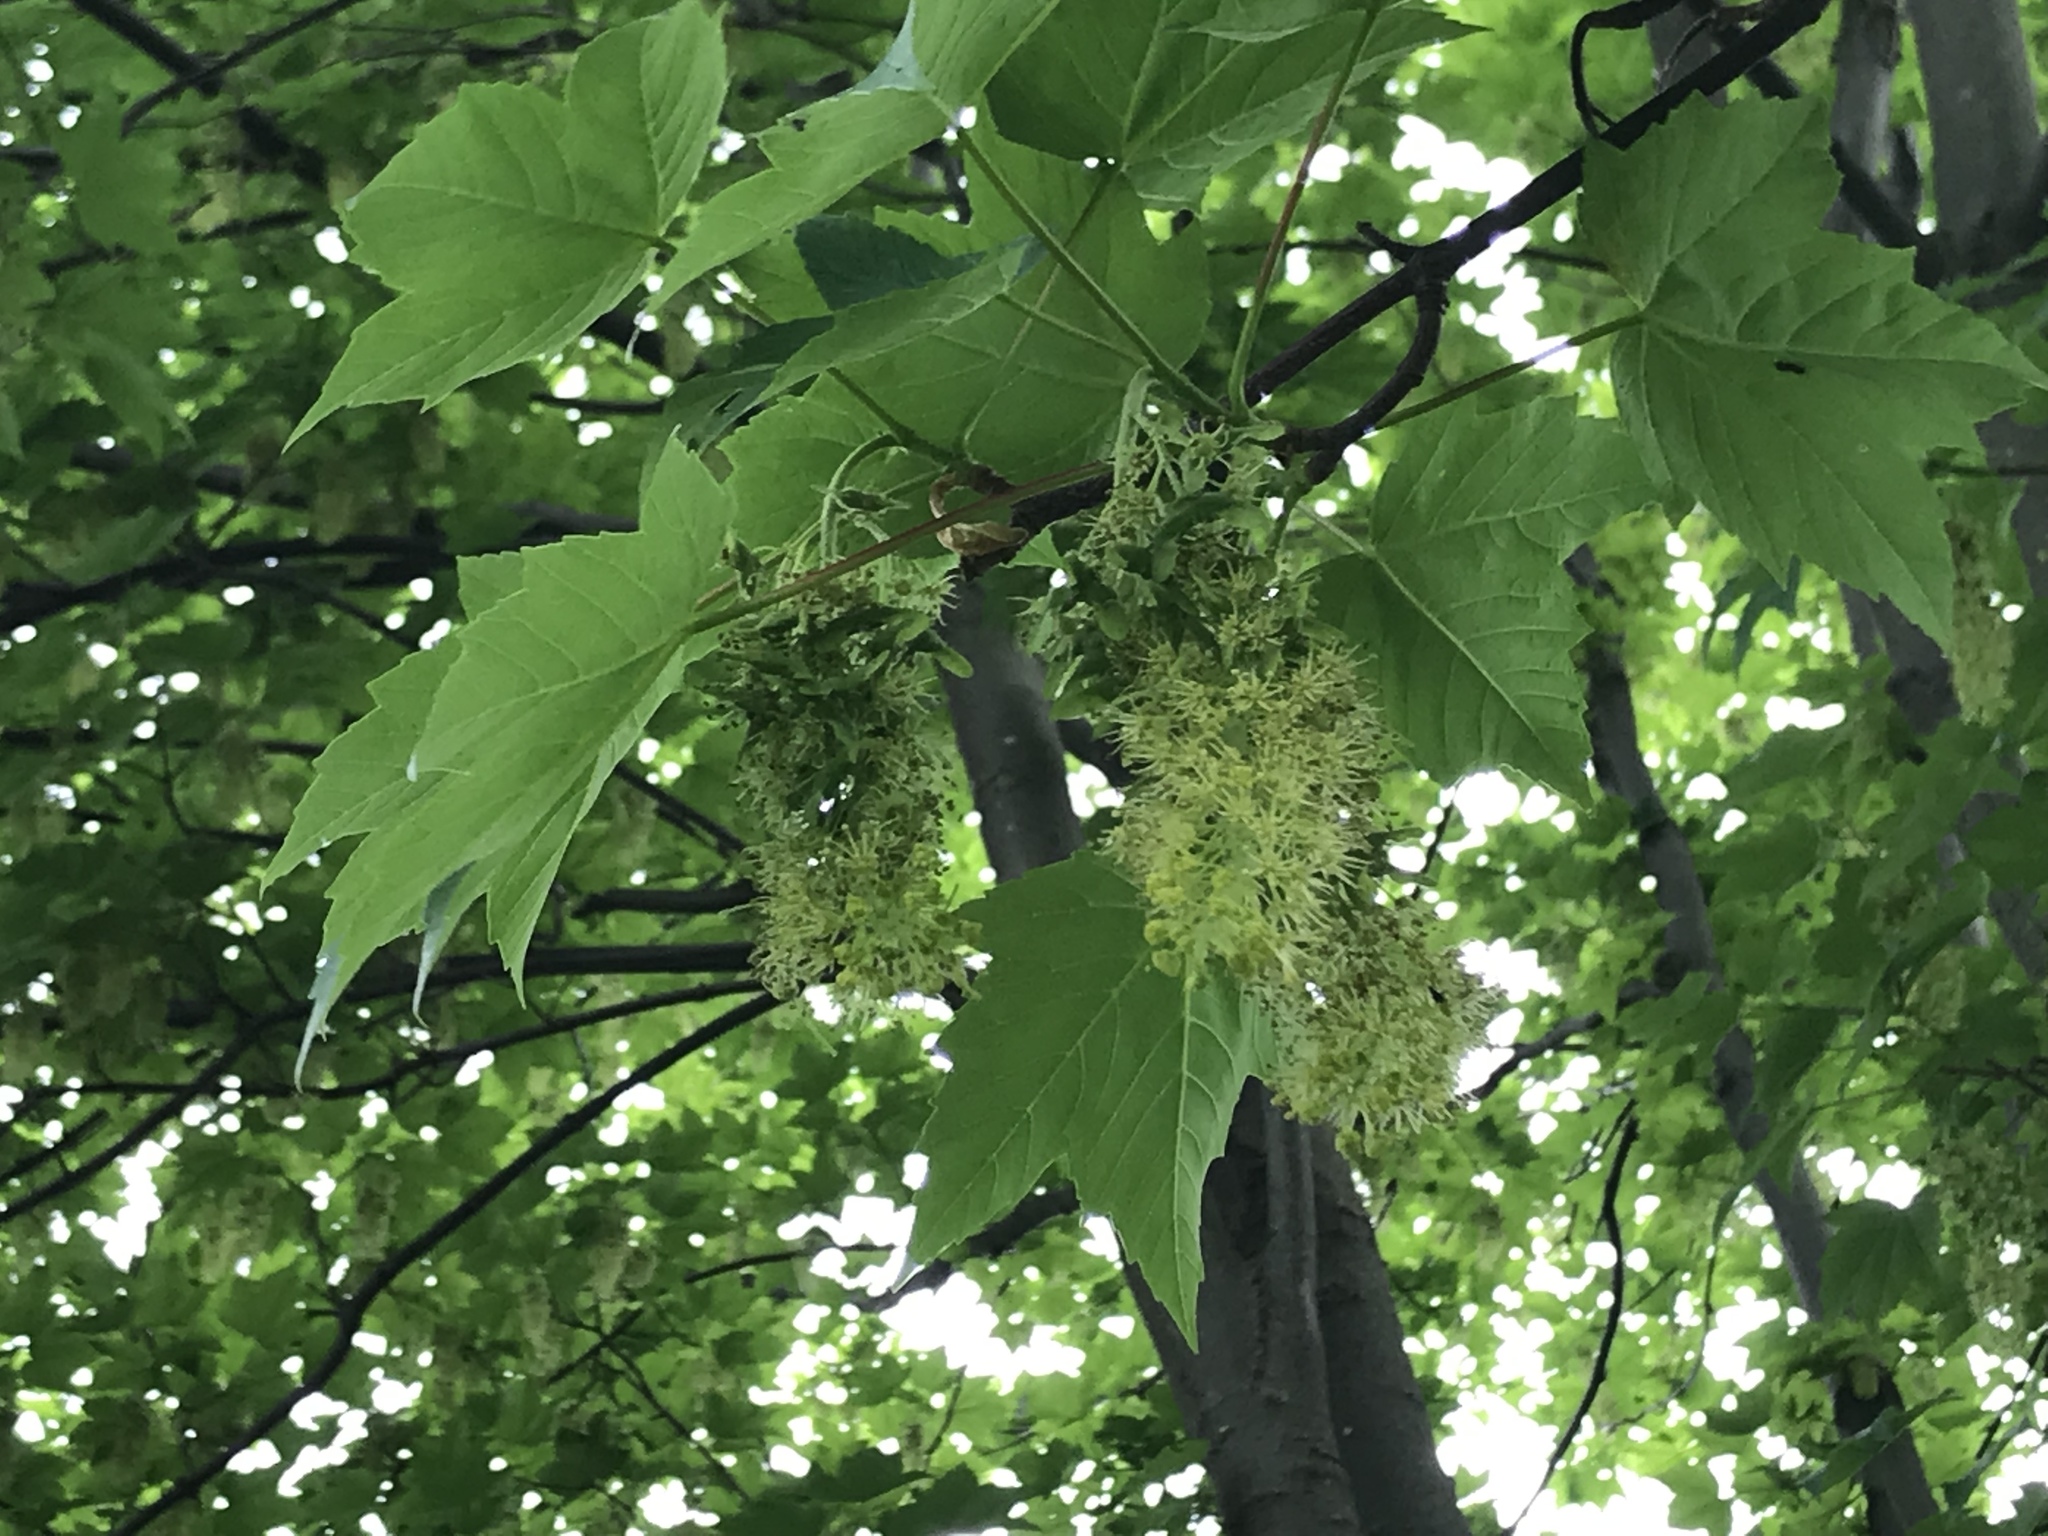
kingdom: Plantae
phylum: Tracheophyta
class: Magnoliopsida
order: Sapindales
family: Sapindaceae
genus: Acer
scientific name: Acer pseudoplatanus
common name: Sycamore
